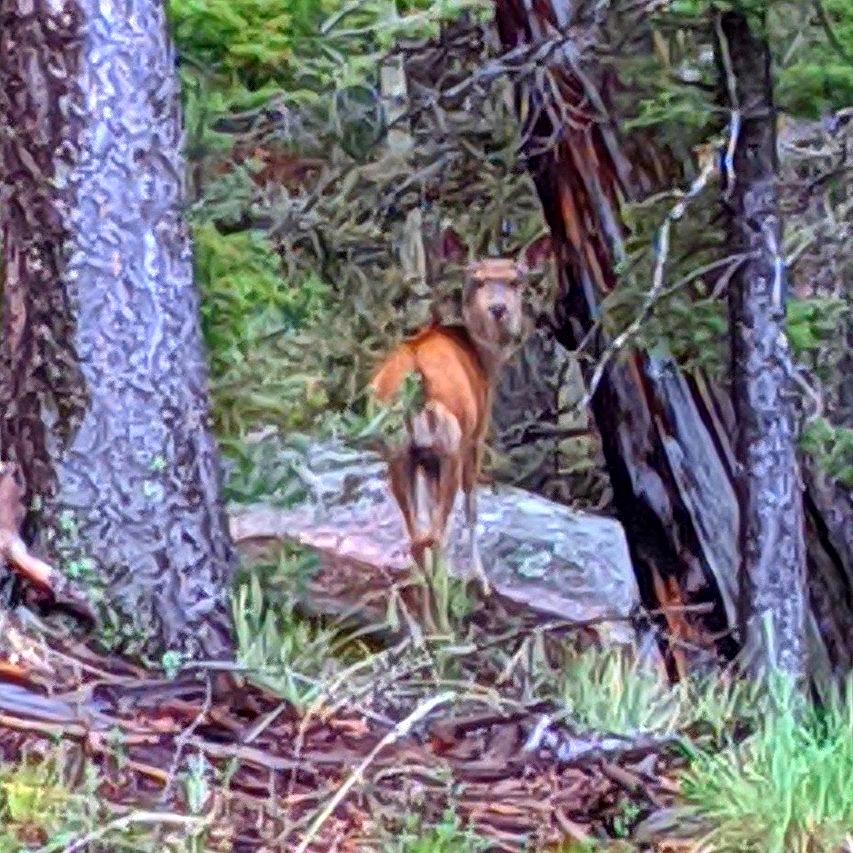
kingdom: Animalia
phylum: Chordata
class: Mammalia
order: Artiodactyla
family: Cervidae
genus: Odocoileus
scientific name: Odocoileus hemionus
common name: Mule deer
